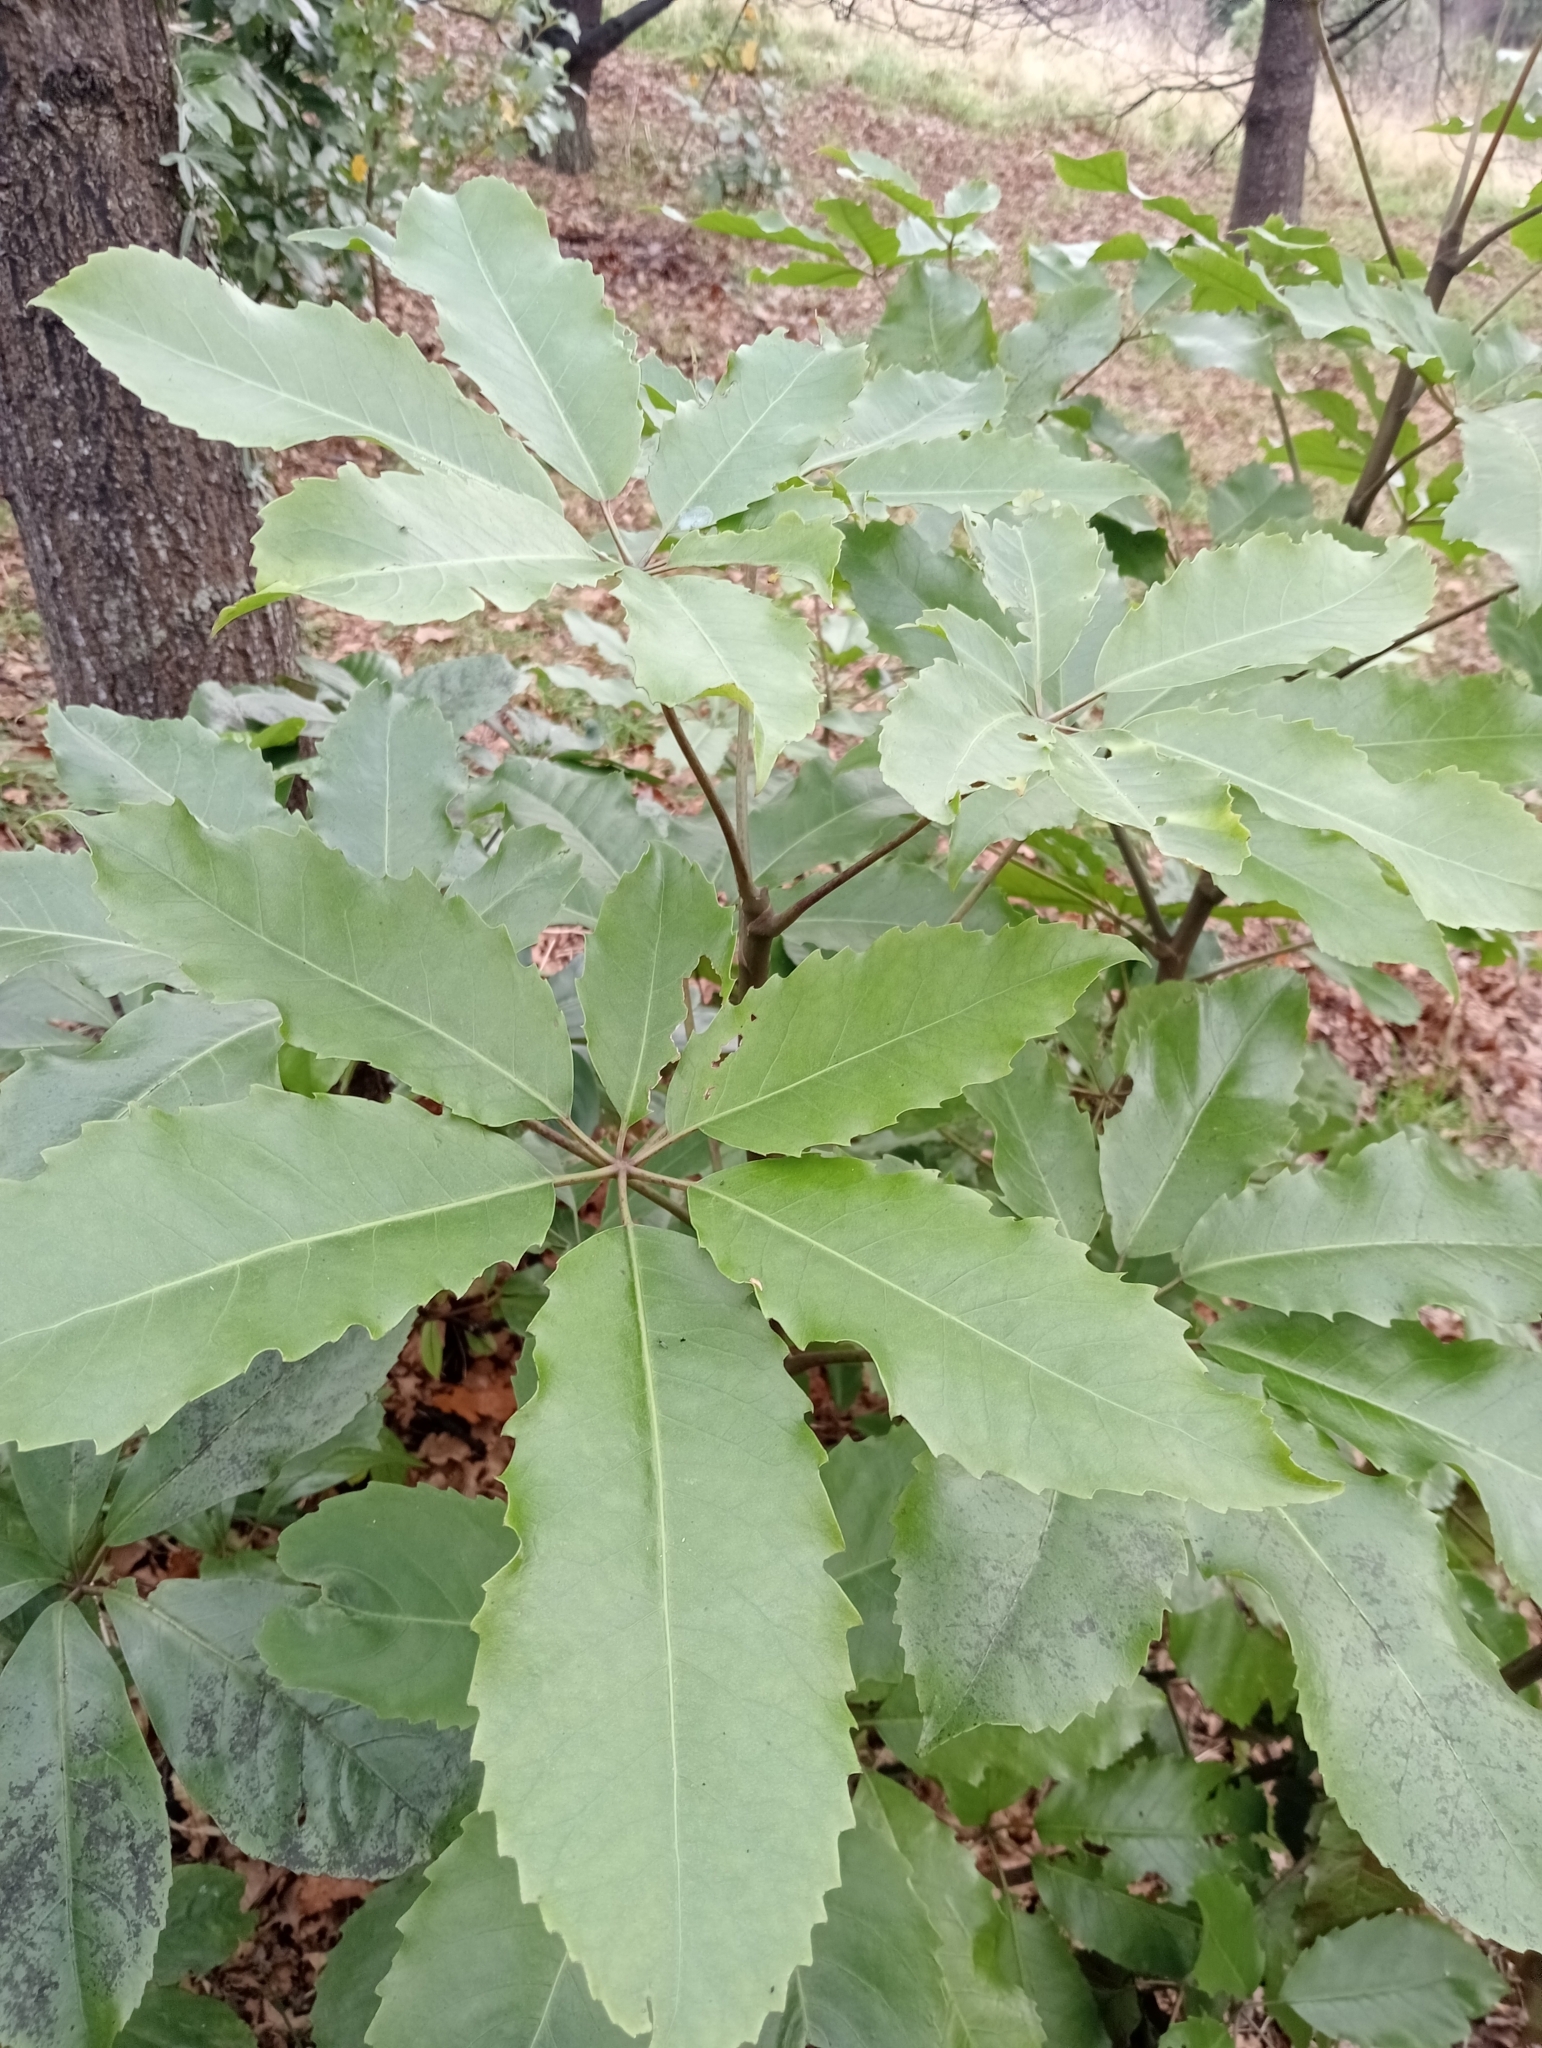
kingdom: Plantae
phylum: Tracheophyta
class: Magnoliopsida
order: Apiales
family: Araliaceae
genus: Neopanax
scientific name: Neopanax arboreus
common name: Five-fingers
